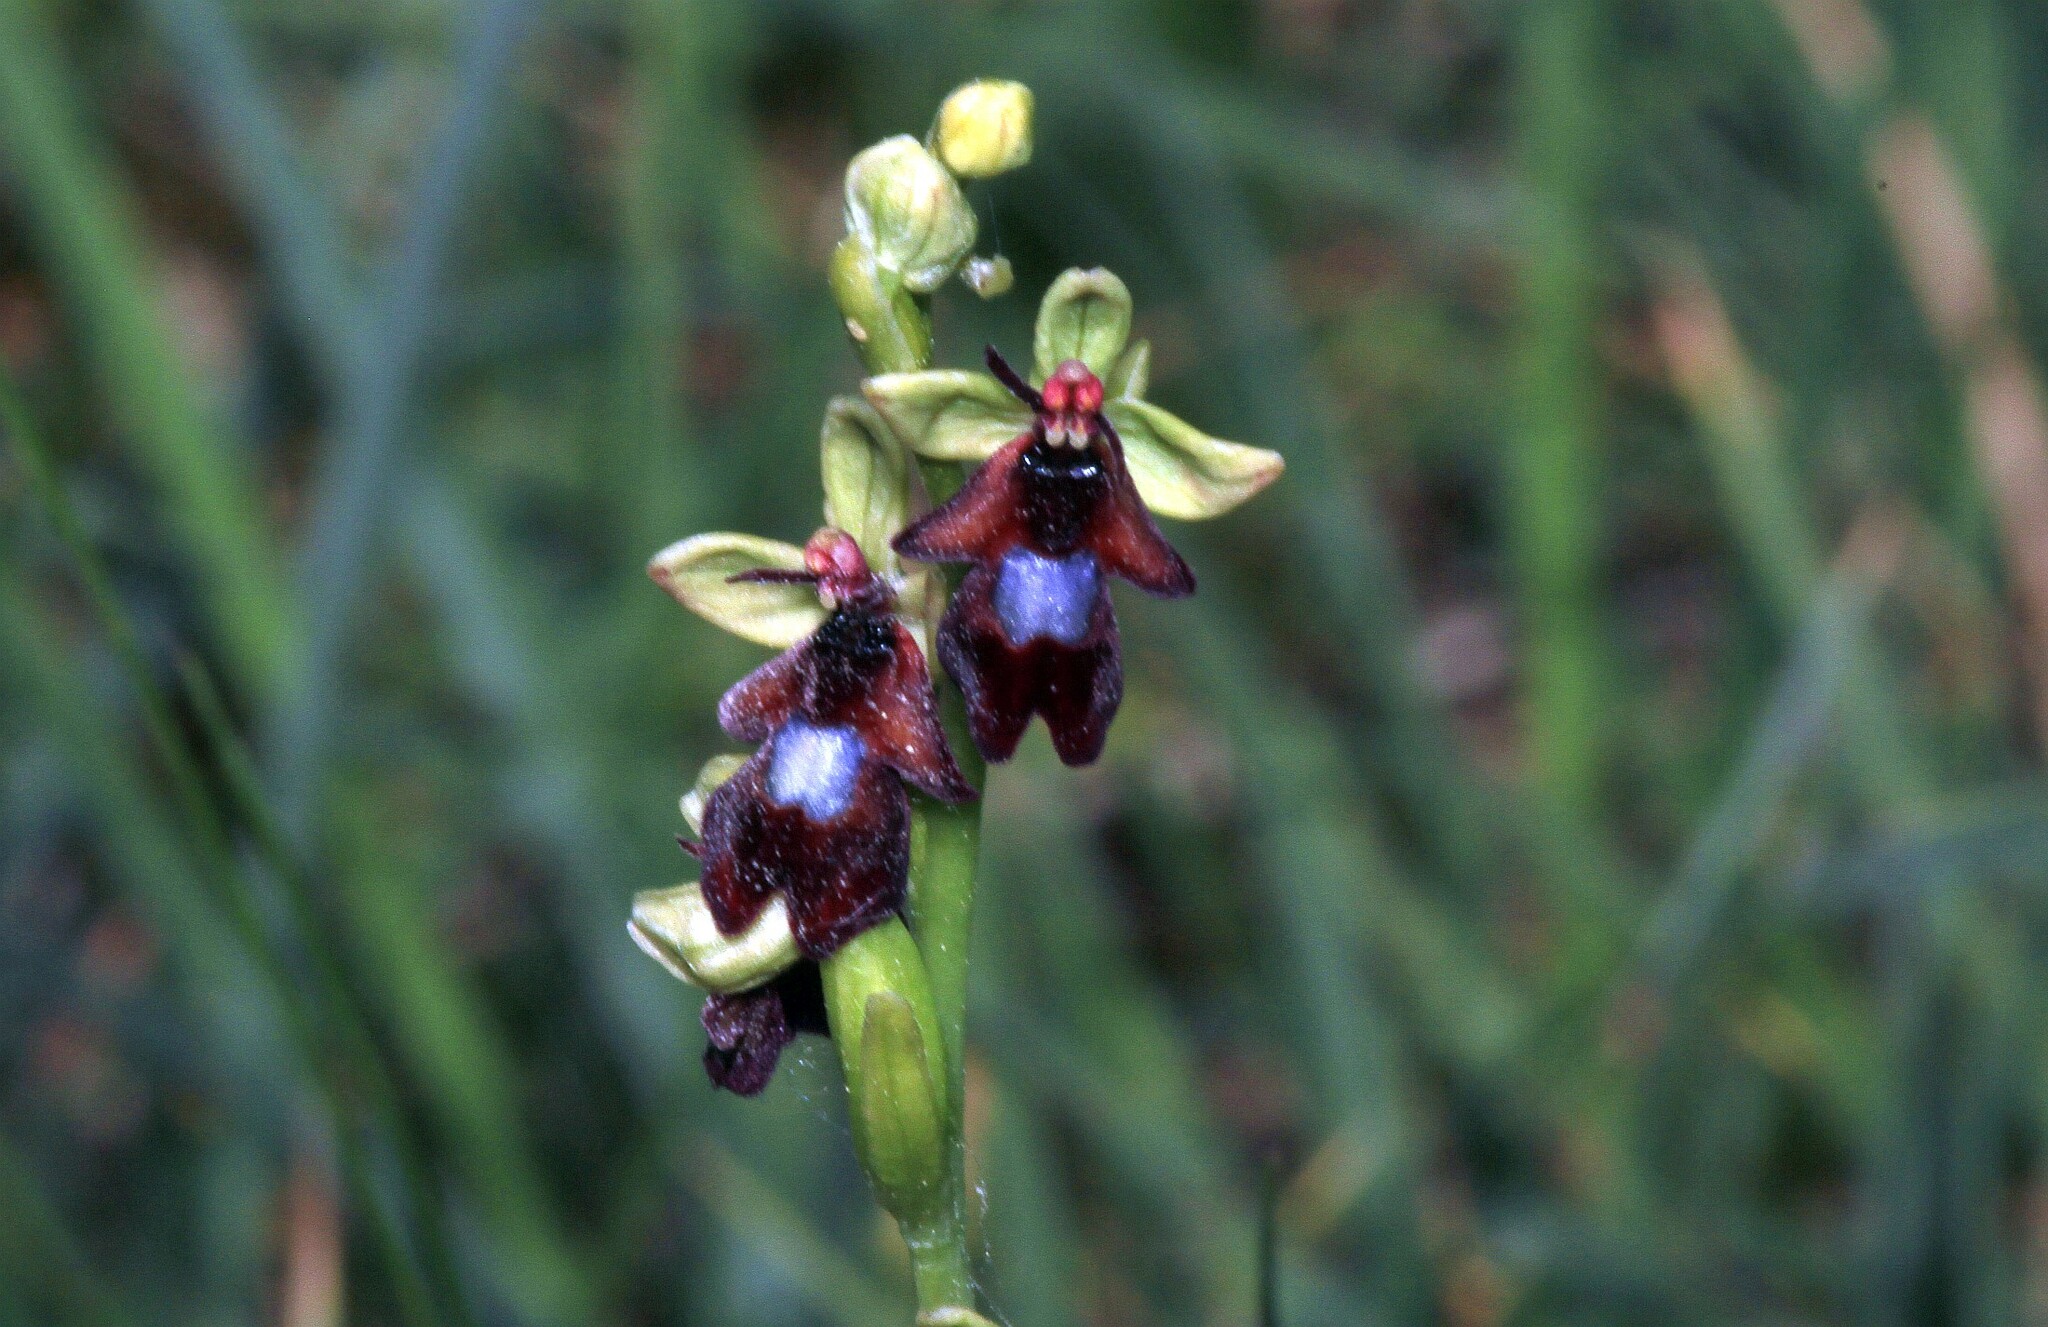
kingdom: Plantae
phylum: Tracheophyta
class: Liliopsida
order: Asparagales
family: Orchidaceae
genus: Ophrys
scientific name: Ophrys insectifera
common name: Fly orchid
